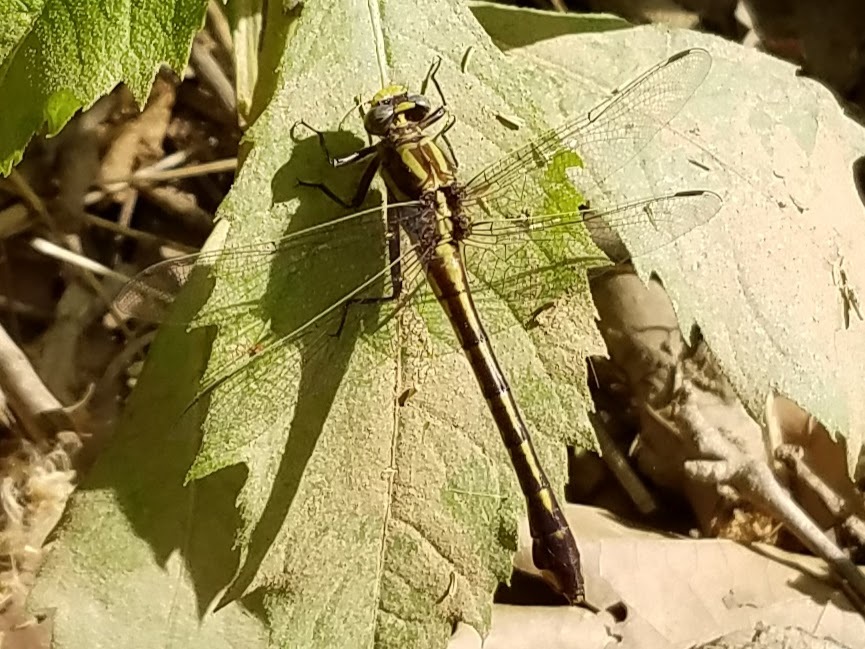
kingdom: Animalia
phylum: Arthropoda
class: Insecta
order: Odonata
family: Gomphidae
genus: Gomphurus
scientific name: Gomphurus hybridus
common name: Cocoa clubtail
